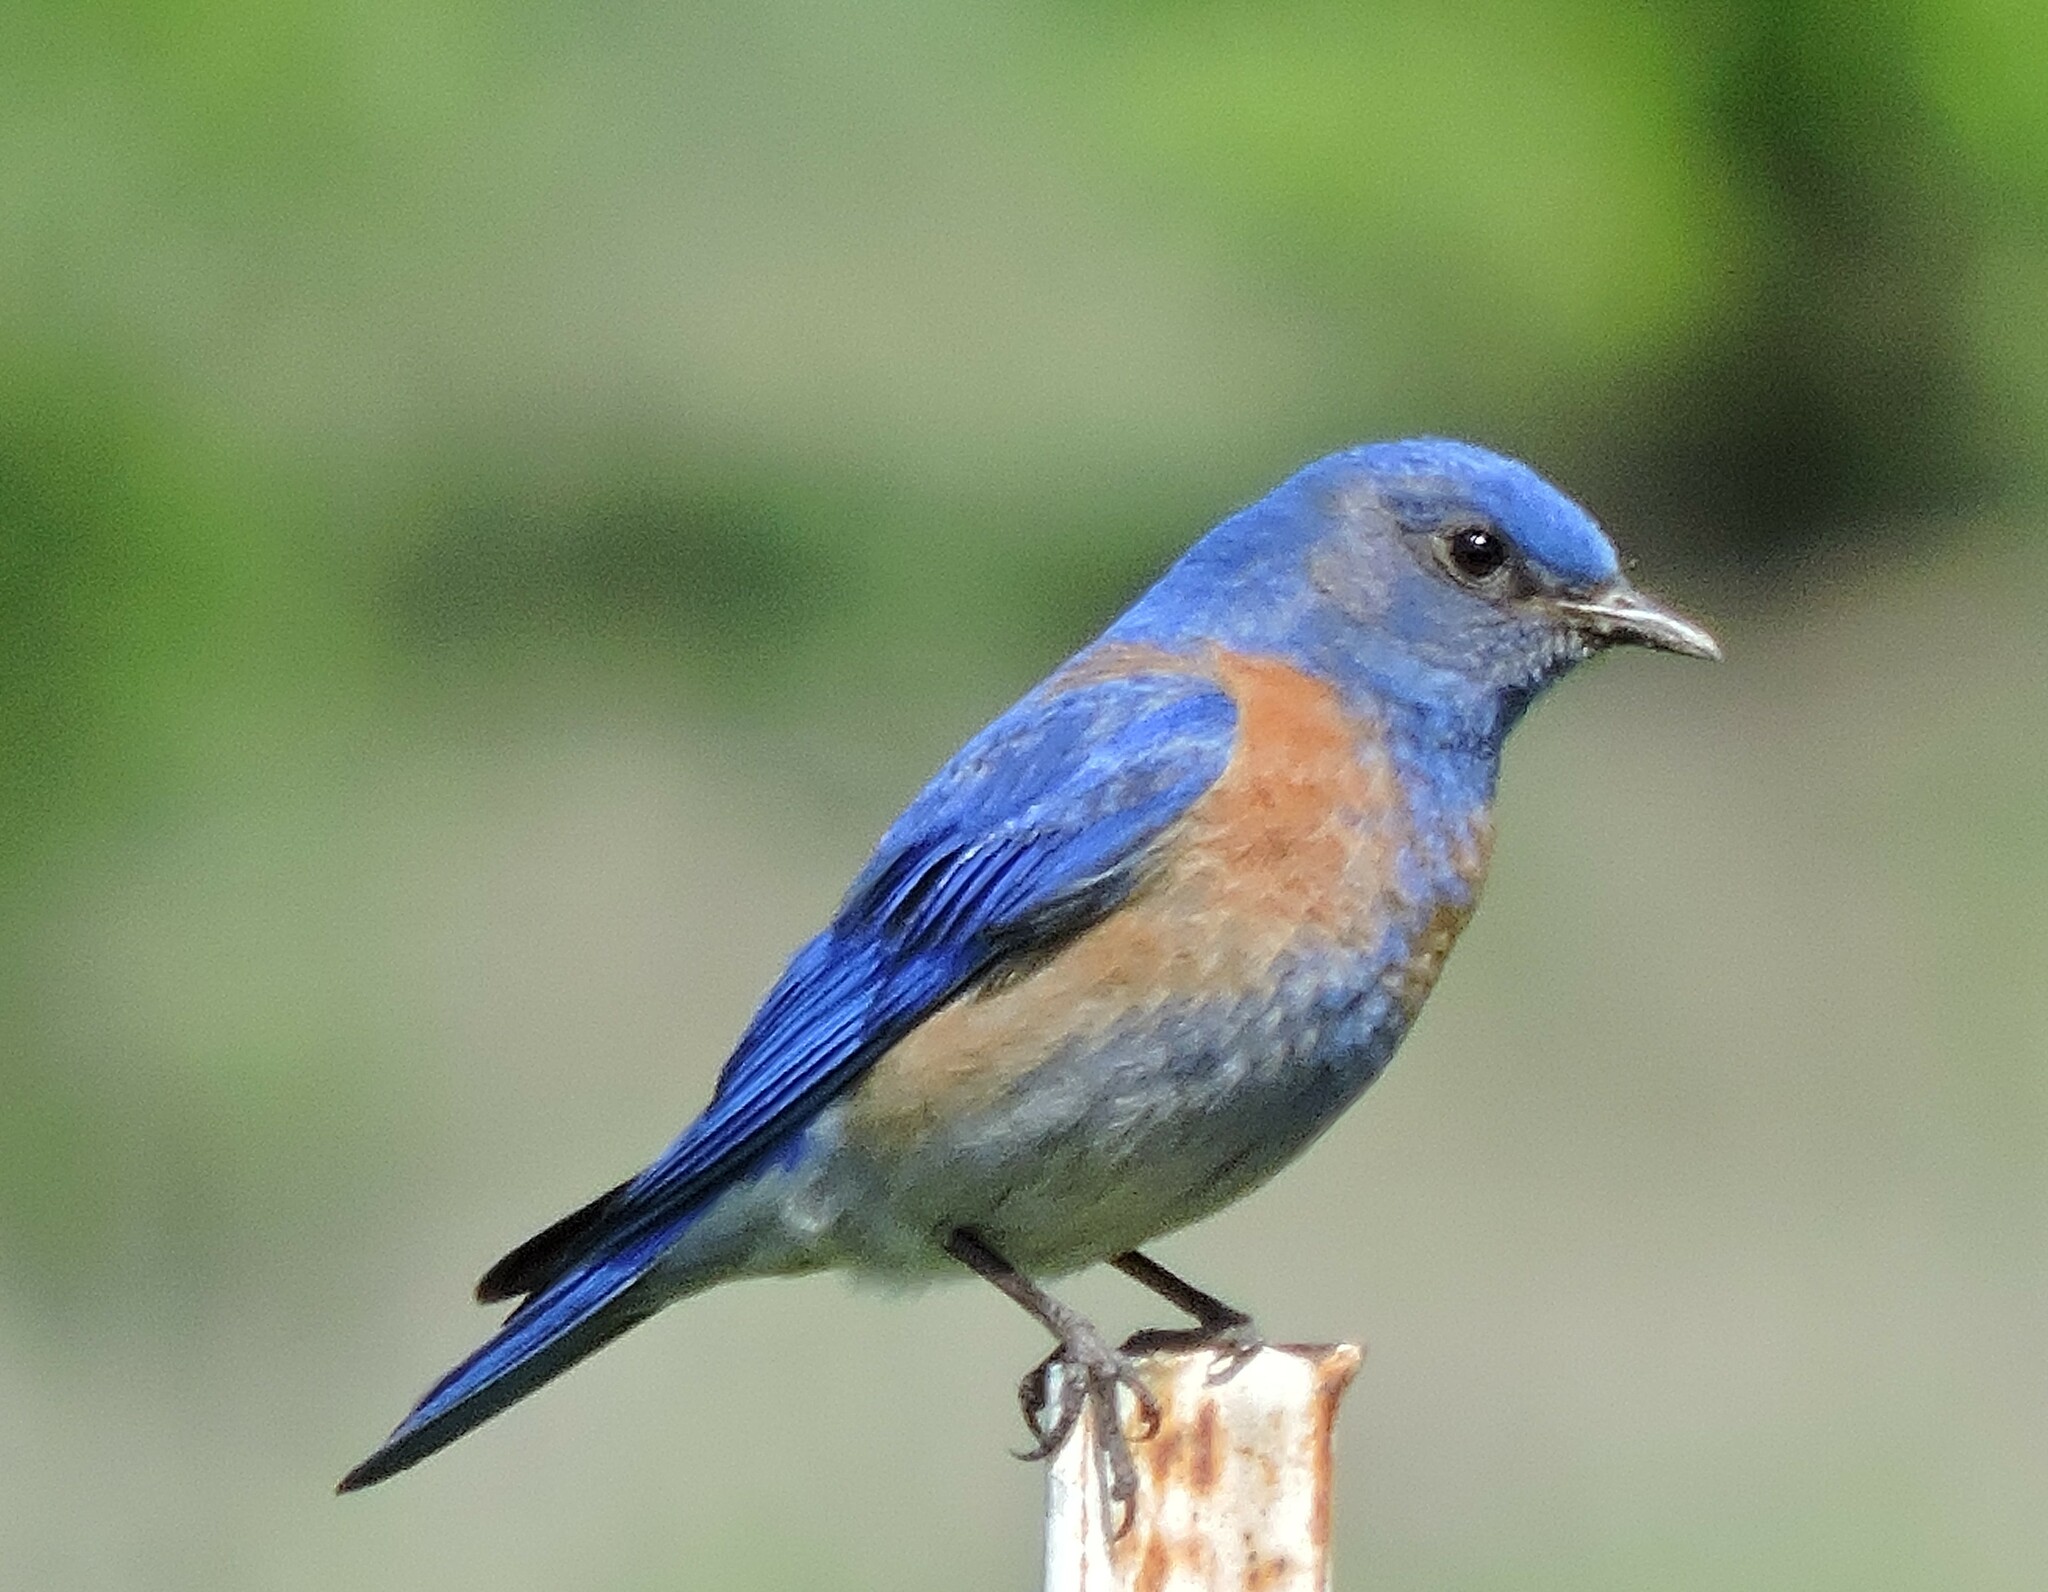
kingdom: Animalia
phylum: Chordata
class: Aves
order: Passeriformes
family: Turdidae
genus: Sialia
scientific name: Sialia mexicana
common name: Western bluebird
